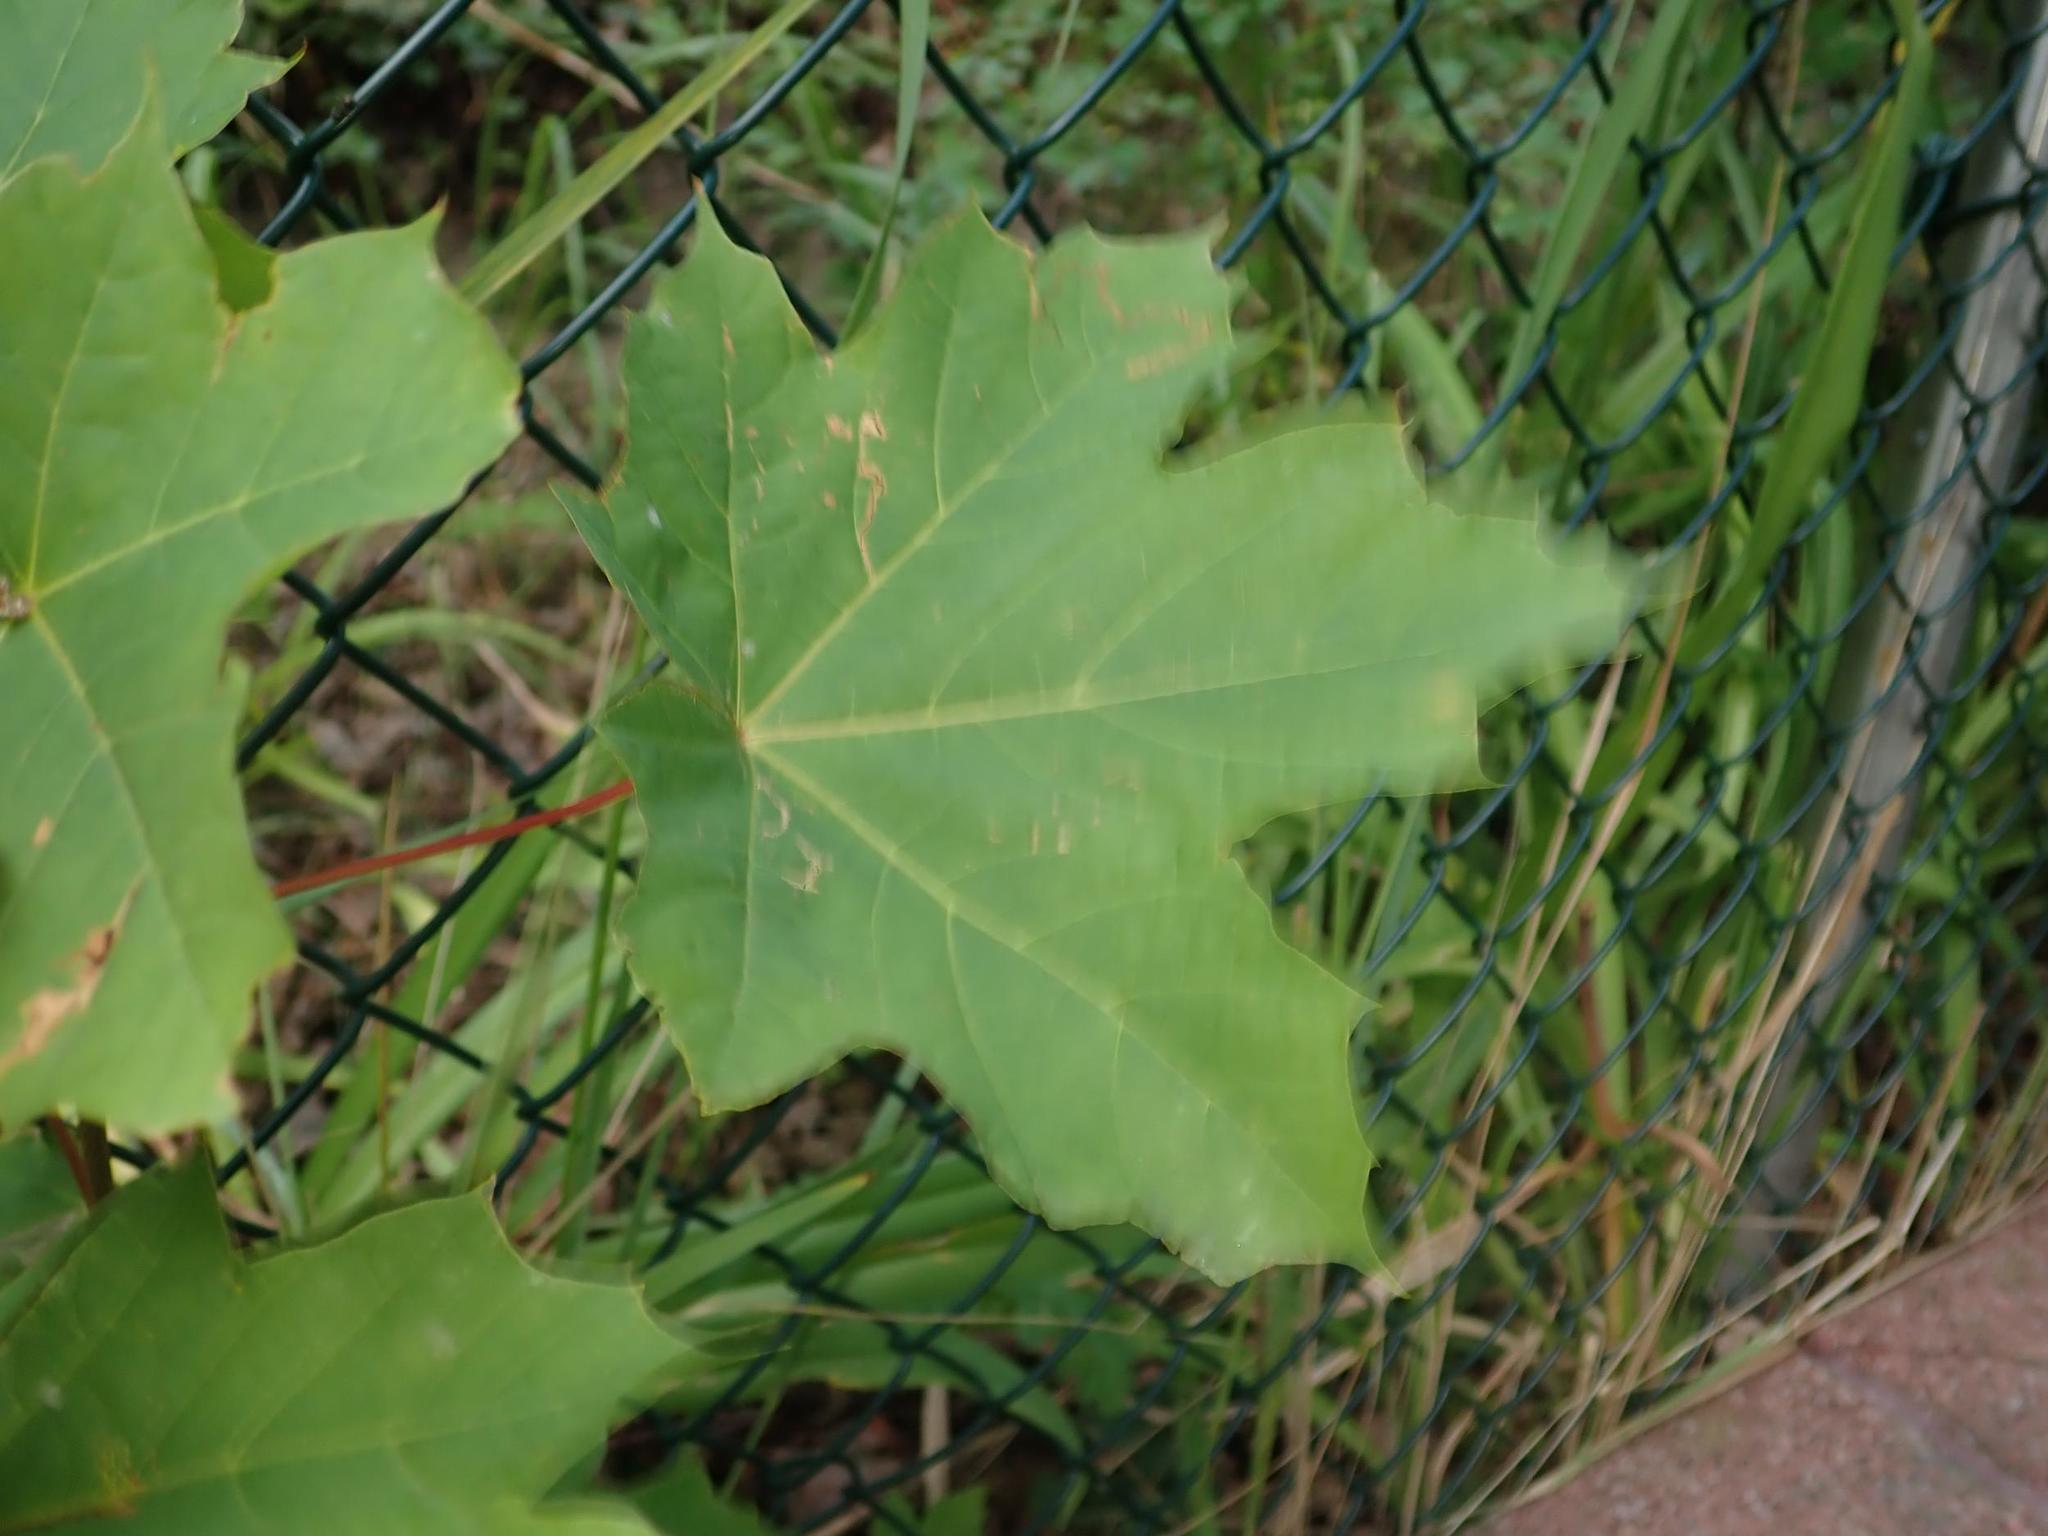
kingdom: Plantae
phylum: Tracheophyta
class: Magnoliopsida
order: Sapindales
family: Sapindaceae
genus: Acer
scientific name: Acer platanoides
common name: Norway maple
